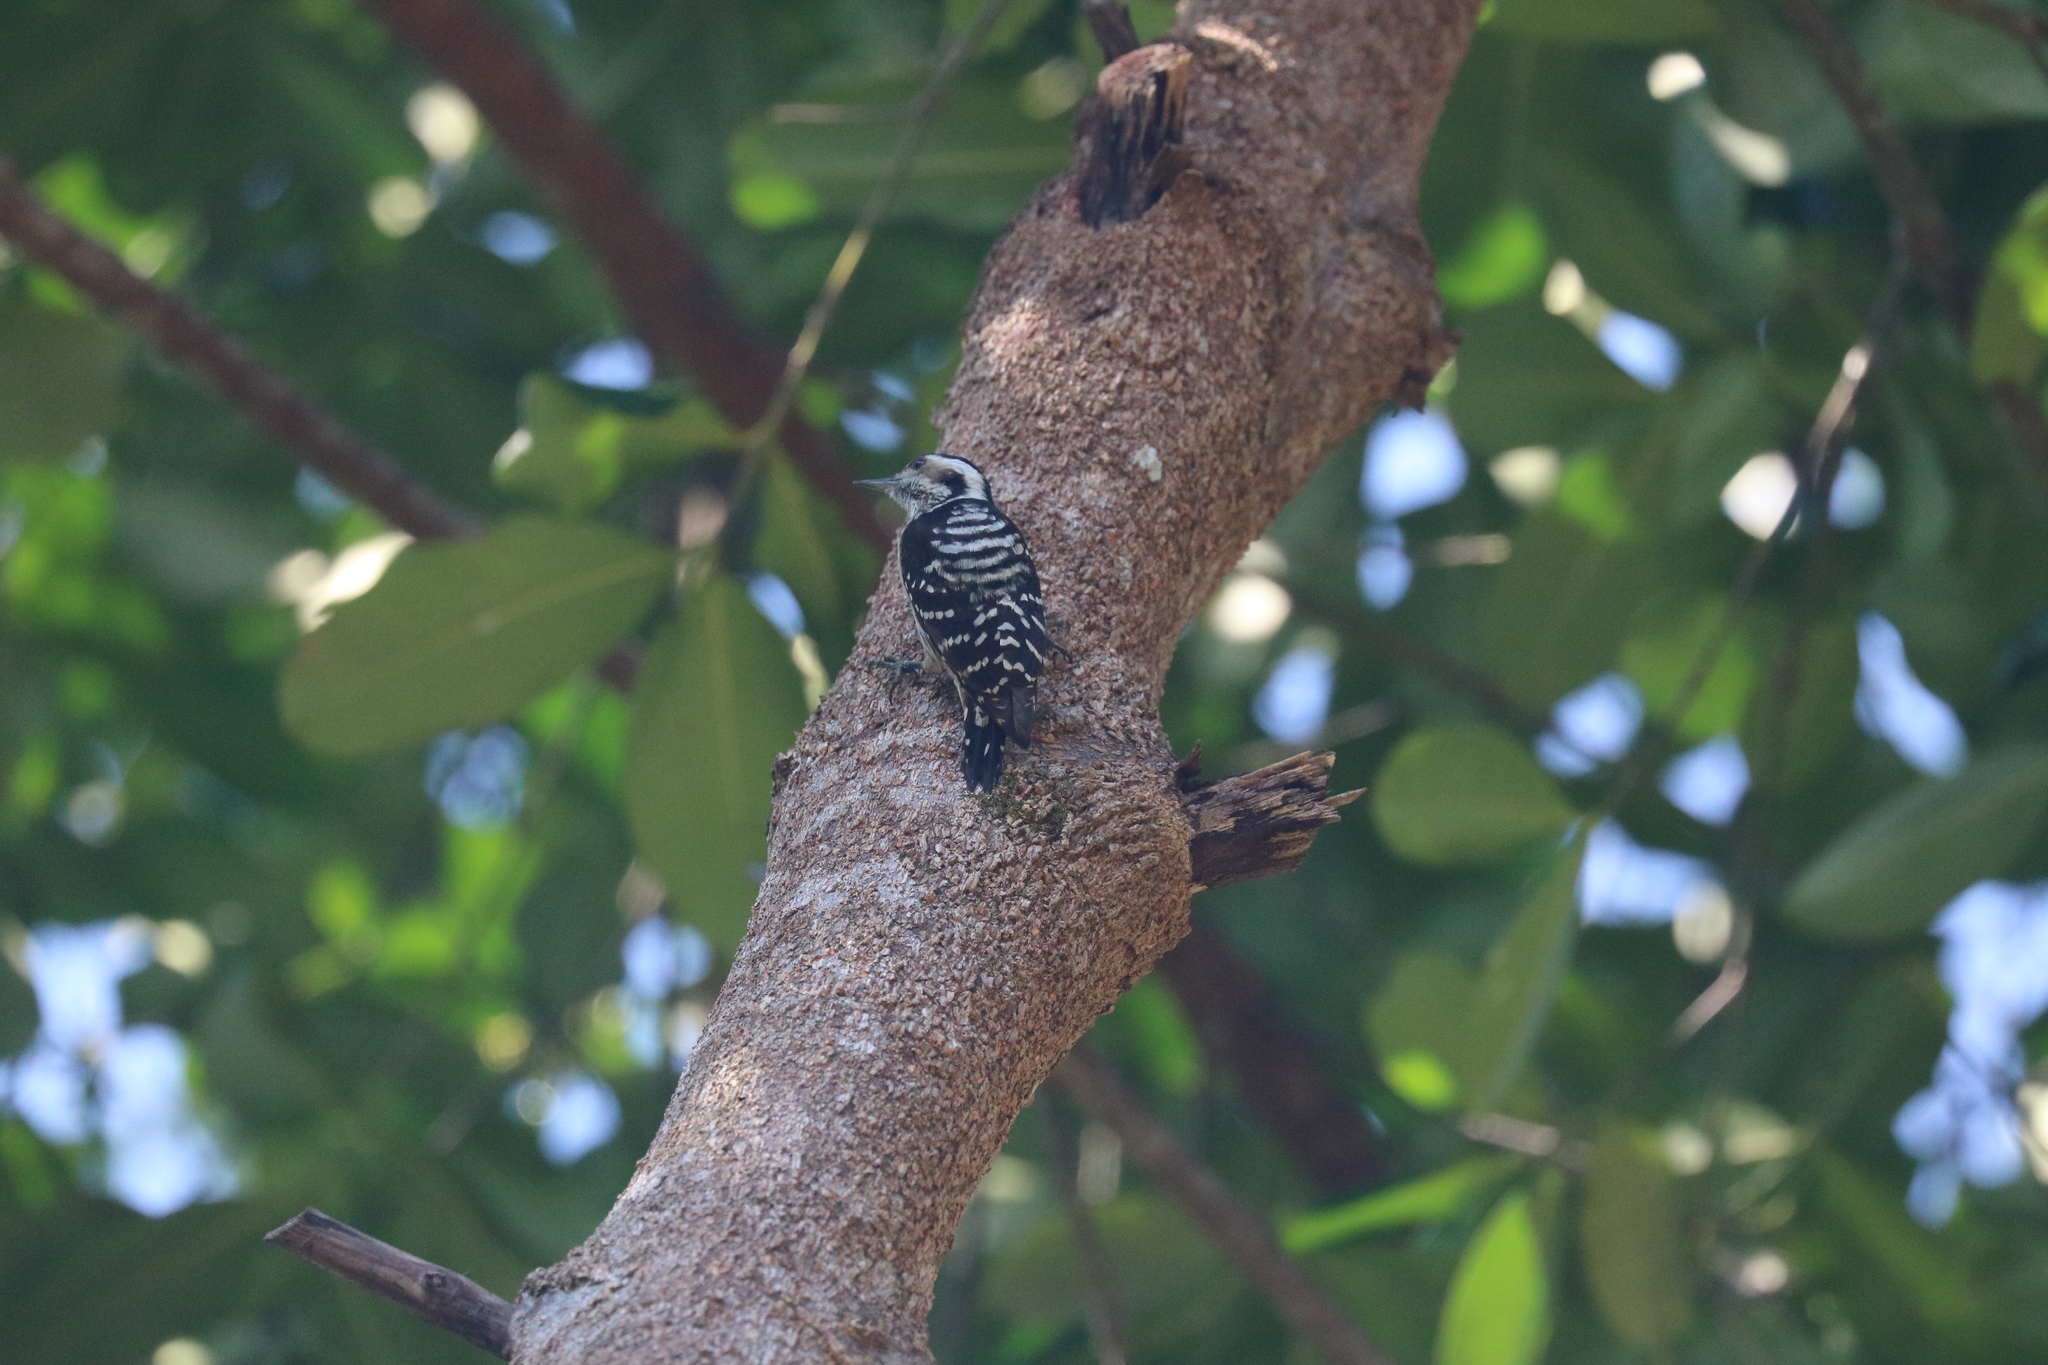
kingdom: Animalia
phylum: Chordata
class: Aves
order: Piciformes
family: Picidae
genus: Yungipicus
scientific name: Yungipicus canicapillus
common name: Grey-capped pygmy woodpecker
